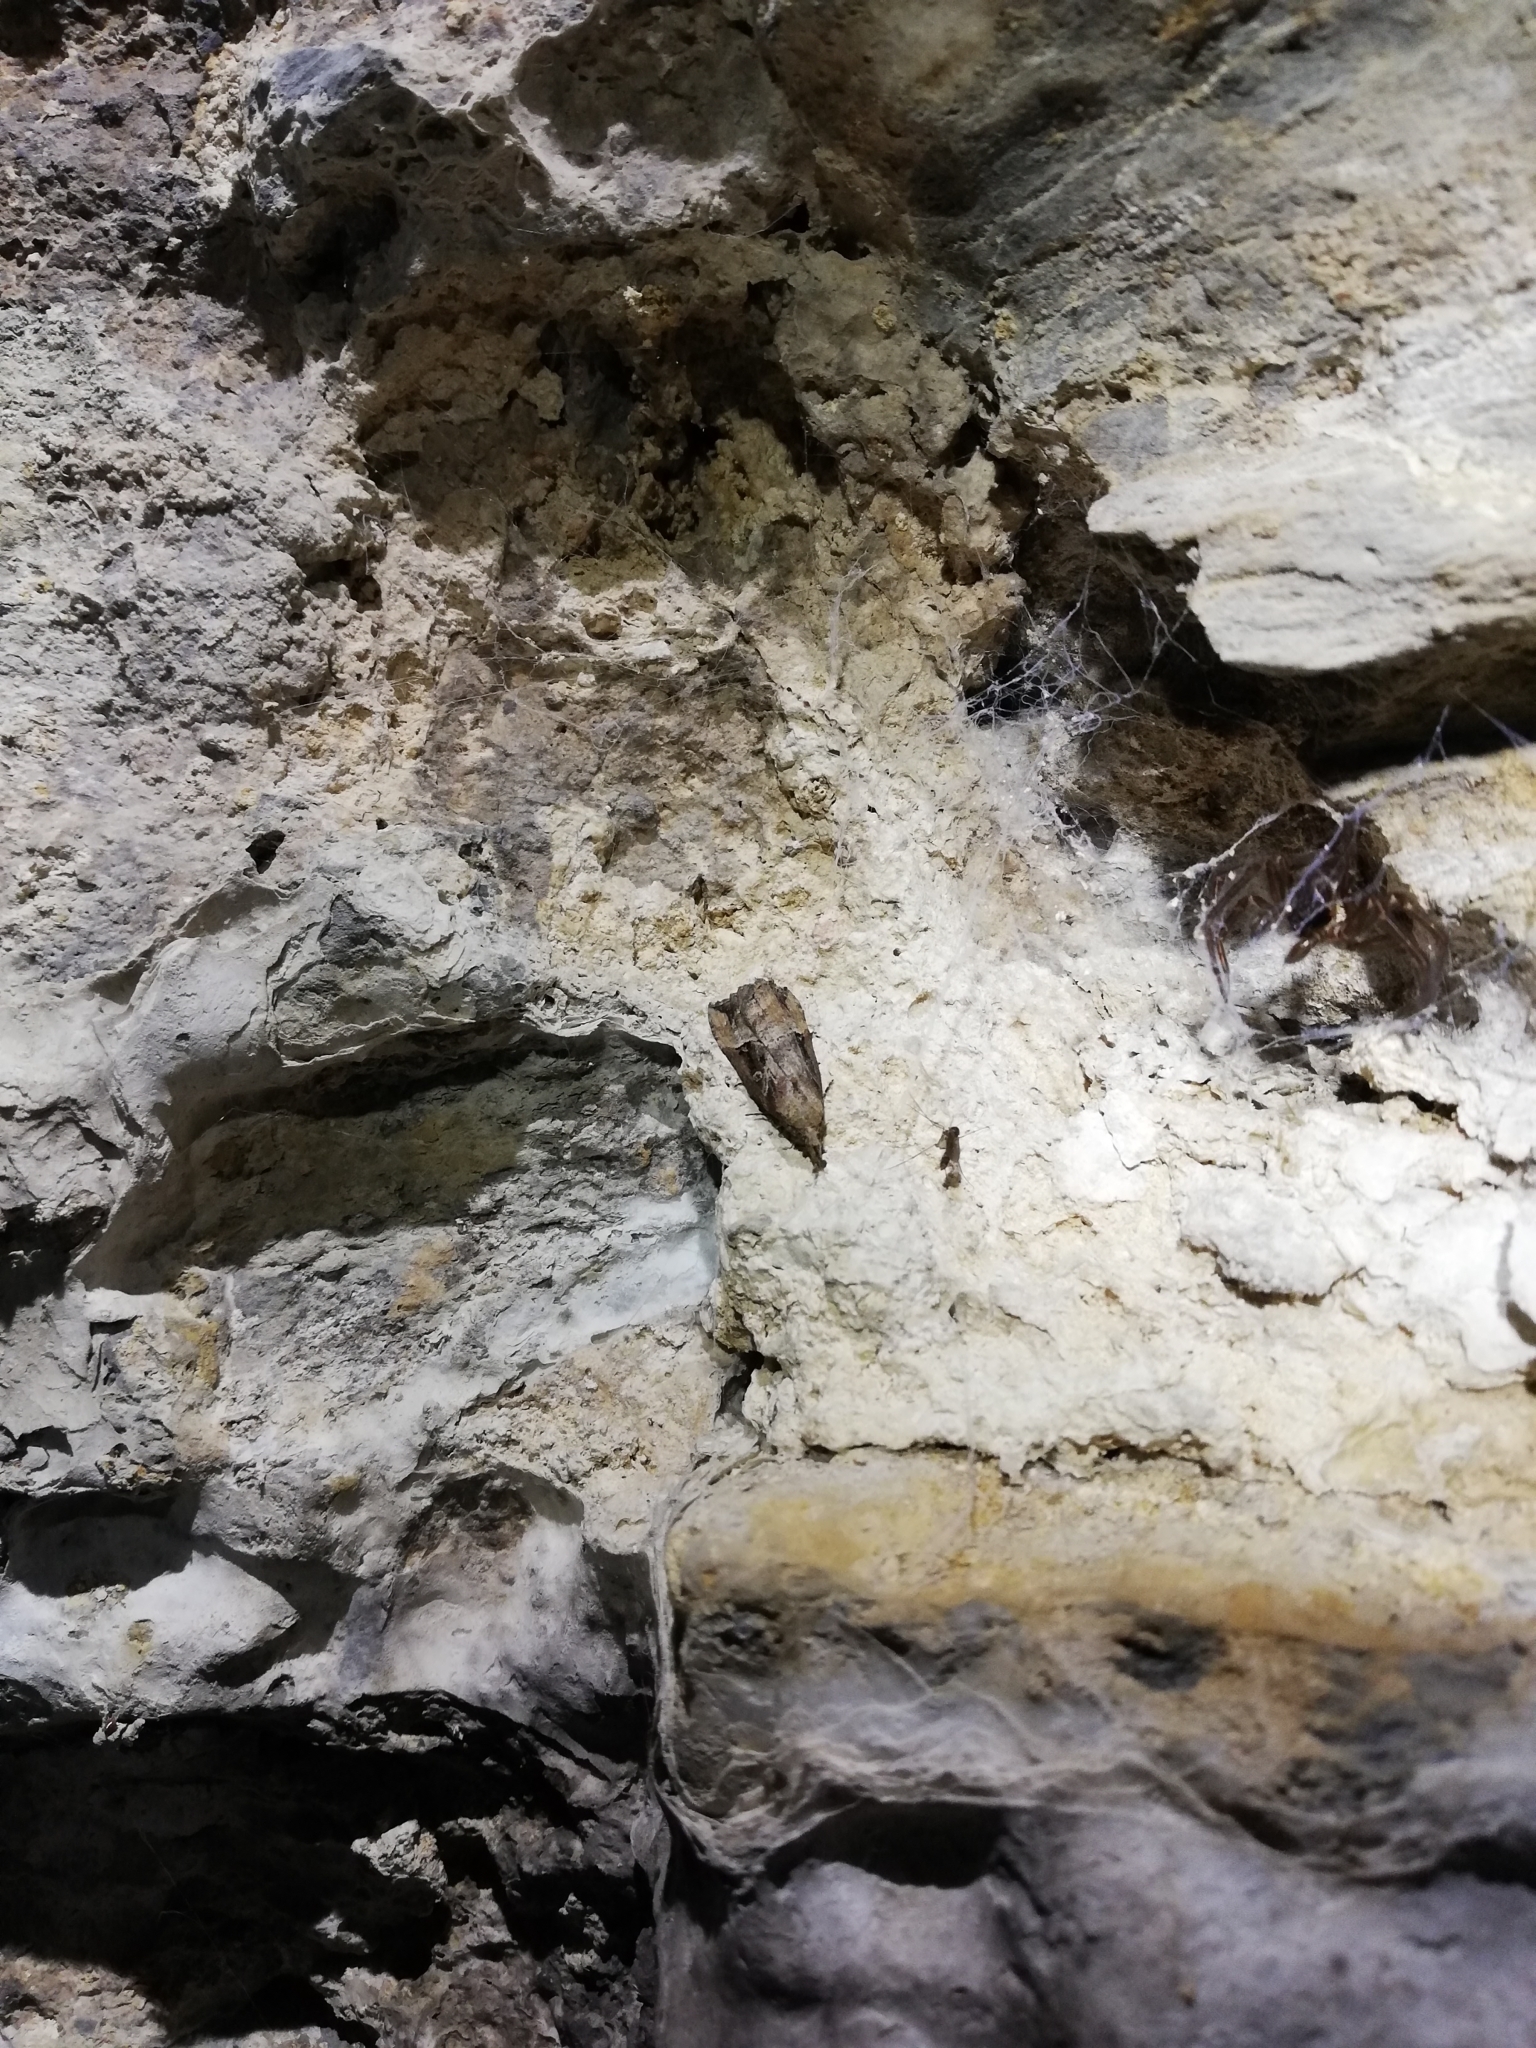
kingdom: Animalia
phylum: Arthropoda
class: Insecta
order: Lepidoptera
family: Erebidae
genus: Hypena
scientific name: Hypena rostralis
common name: Buttoned snout
